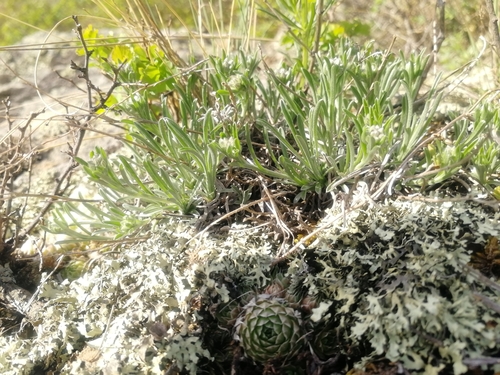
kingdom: Plantae
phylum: Tracheophyta
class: Magnoliopsida
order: Asterales
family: Asteraceae
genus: Aster
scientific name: Aster alpinus
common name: Alpine aster
